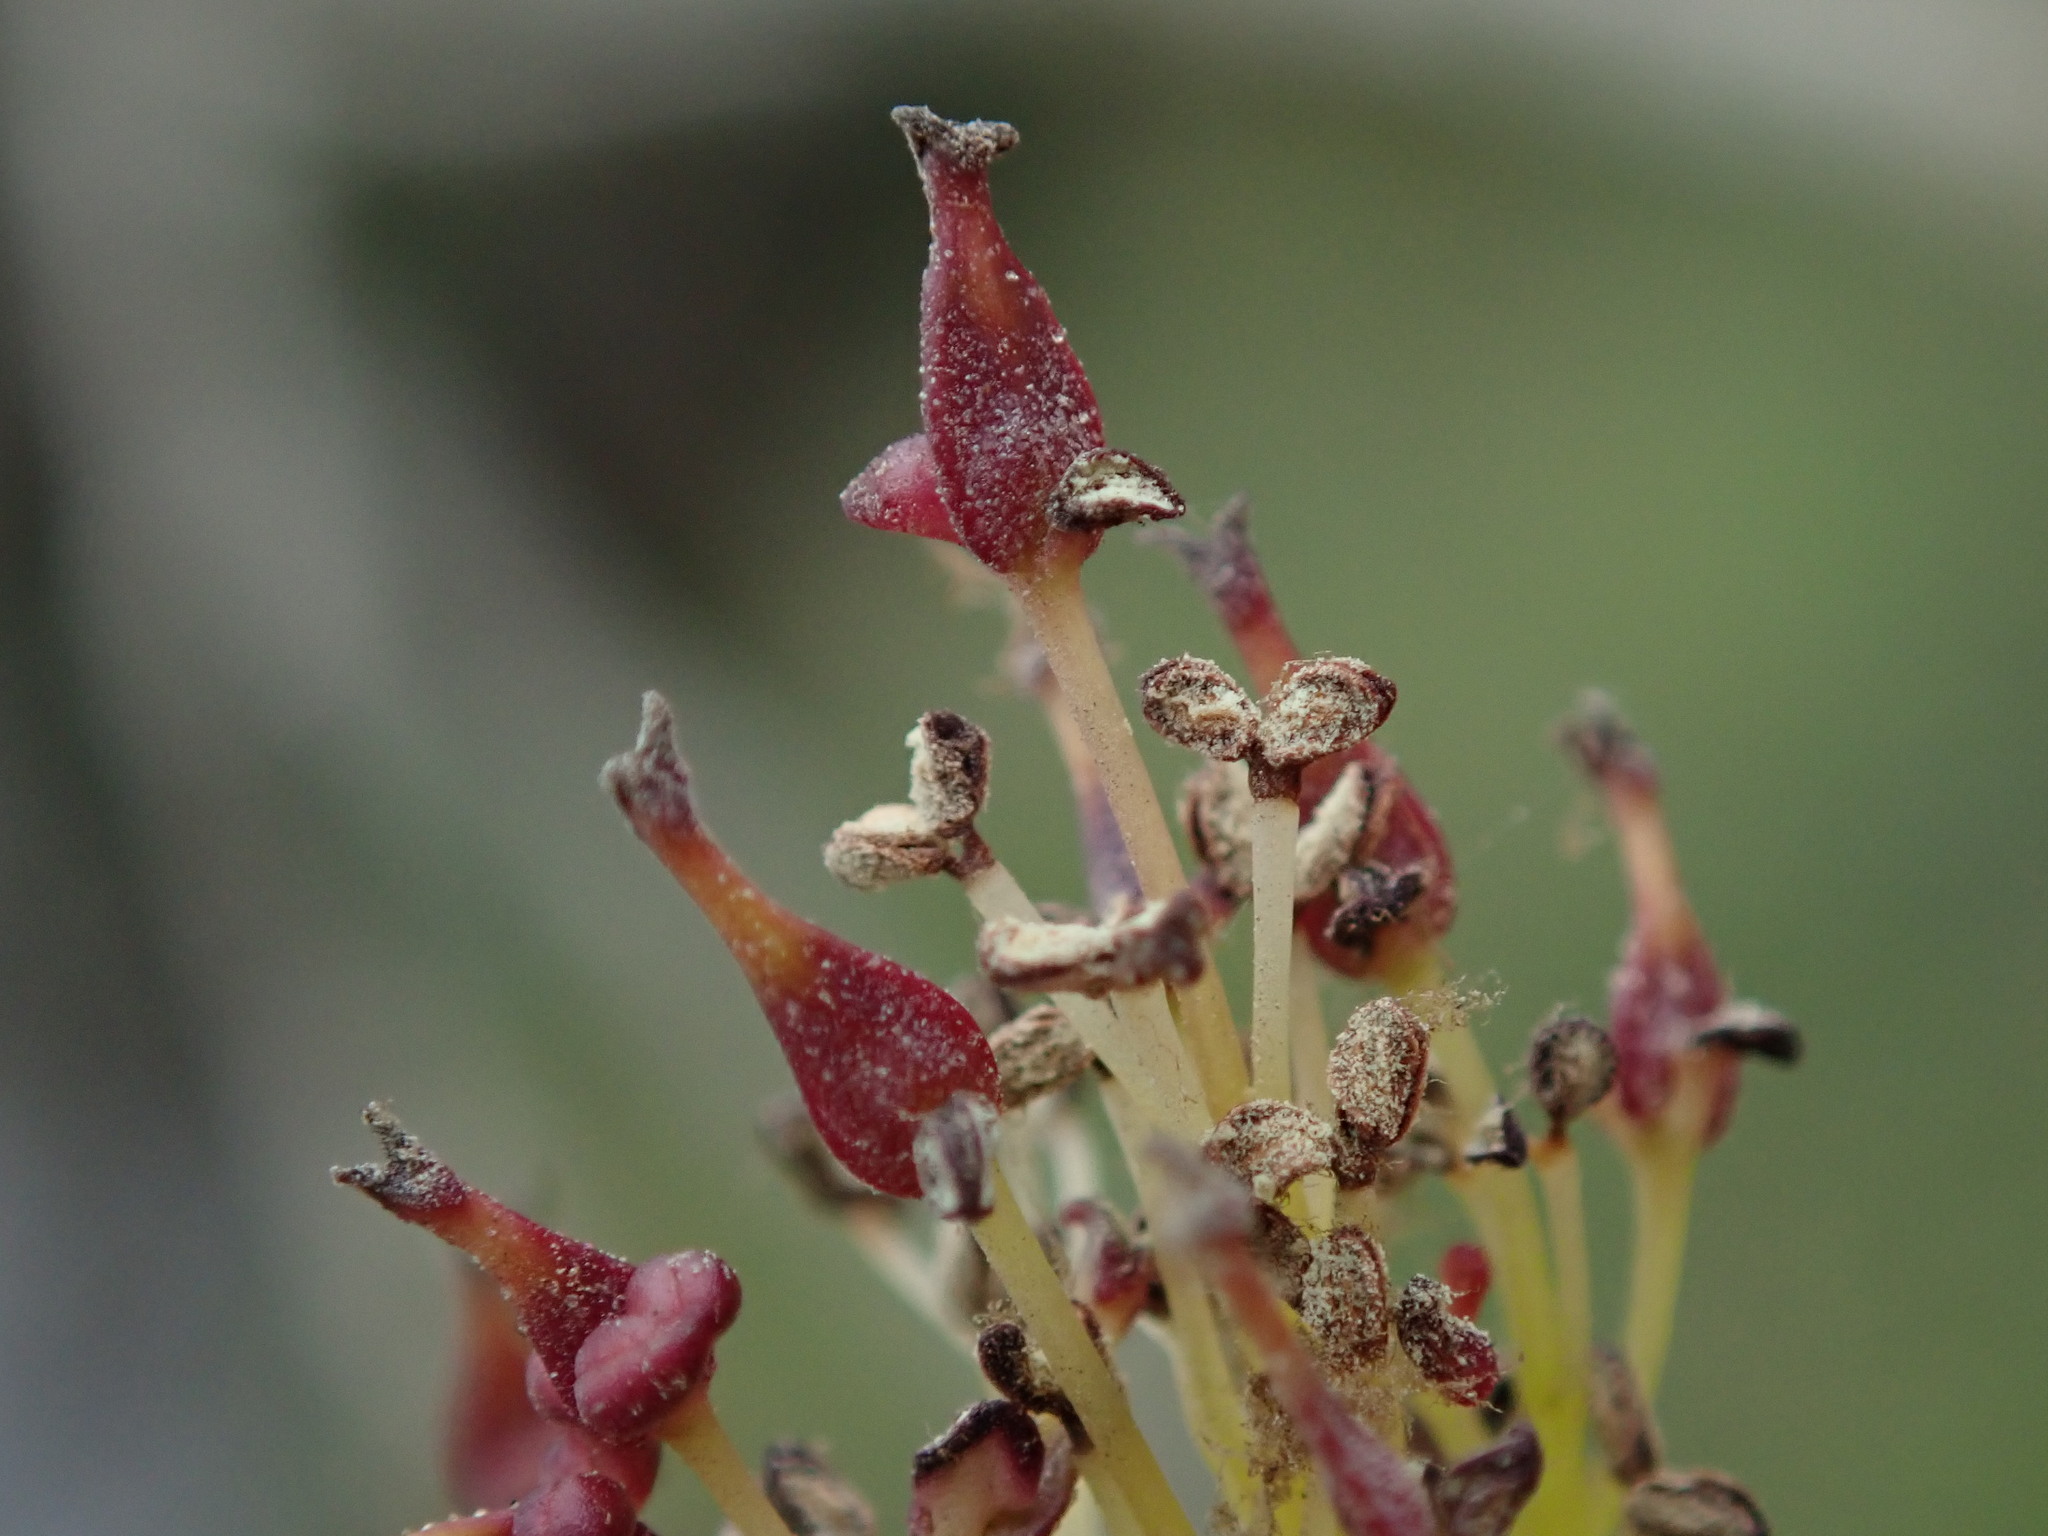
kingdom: Plantae
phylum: Tracheophyta
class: Magnoliopsida
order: Lamiales
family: Oleaceae
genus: Fraxinus
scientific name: Fraxinus excelsior
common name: European ash
